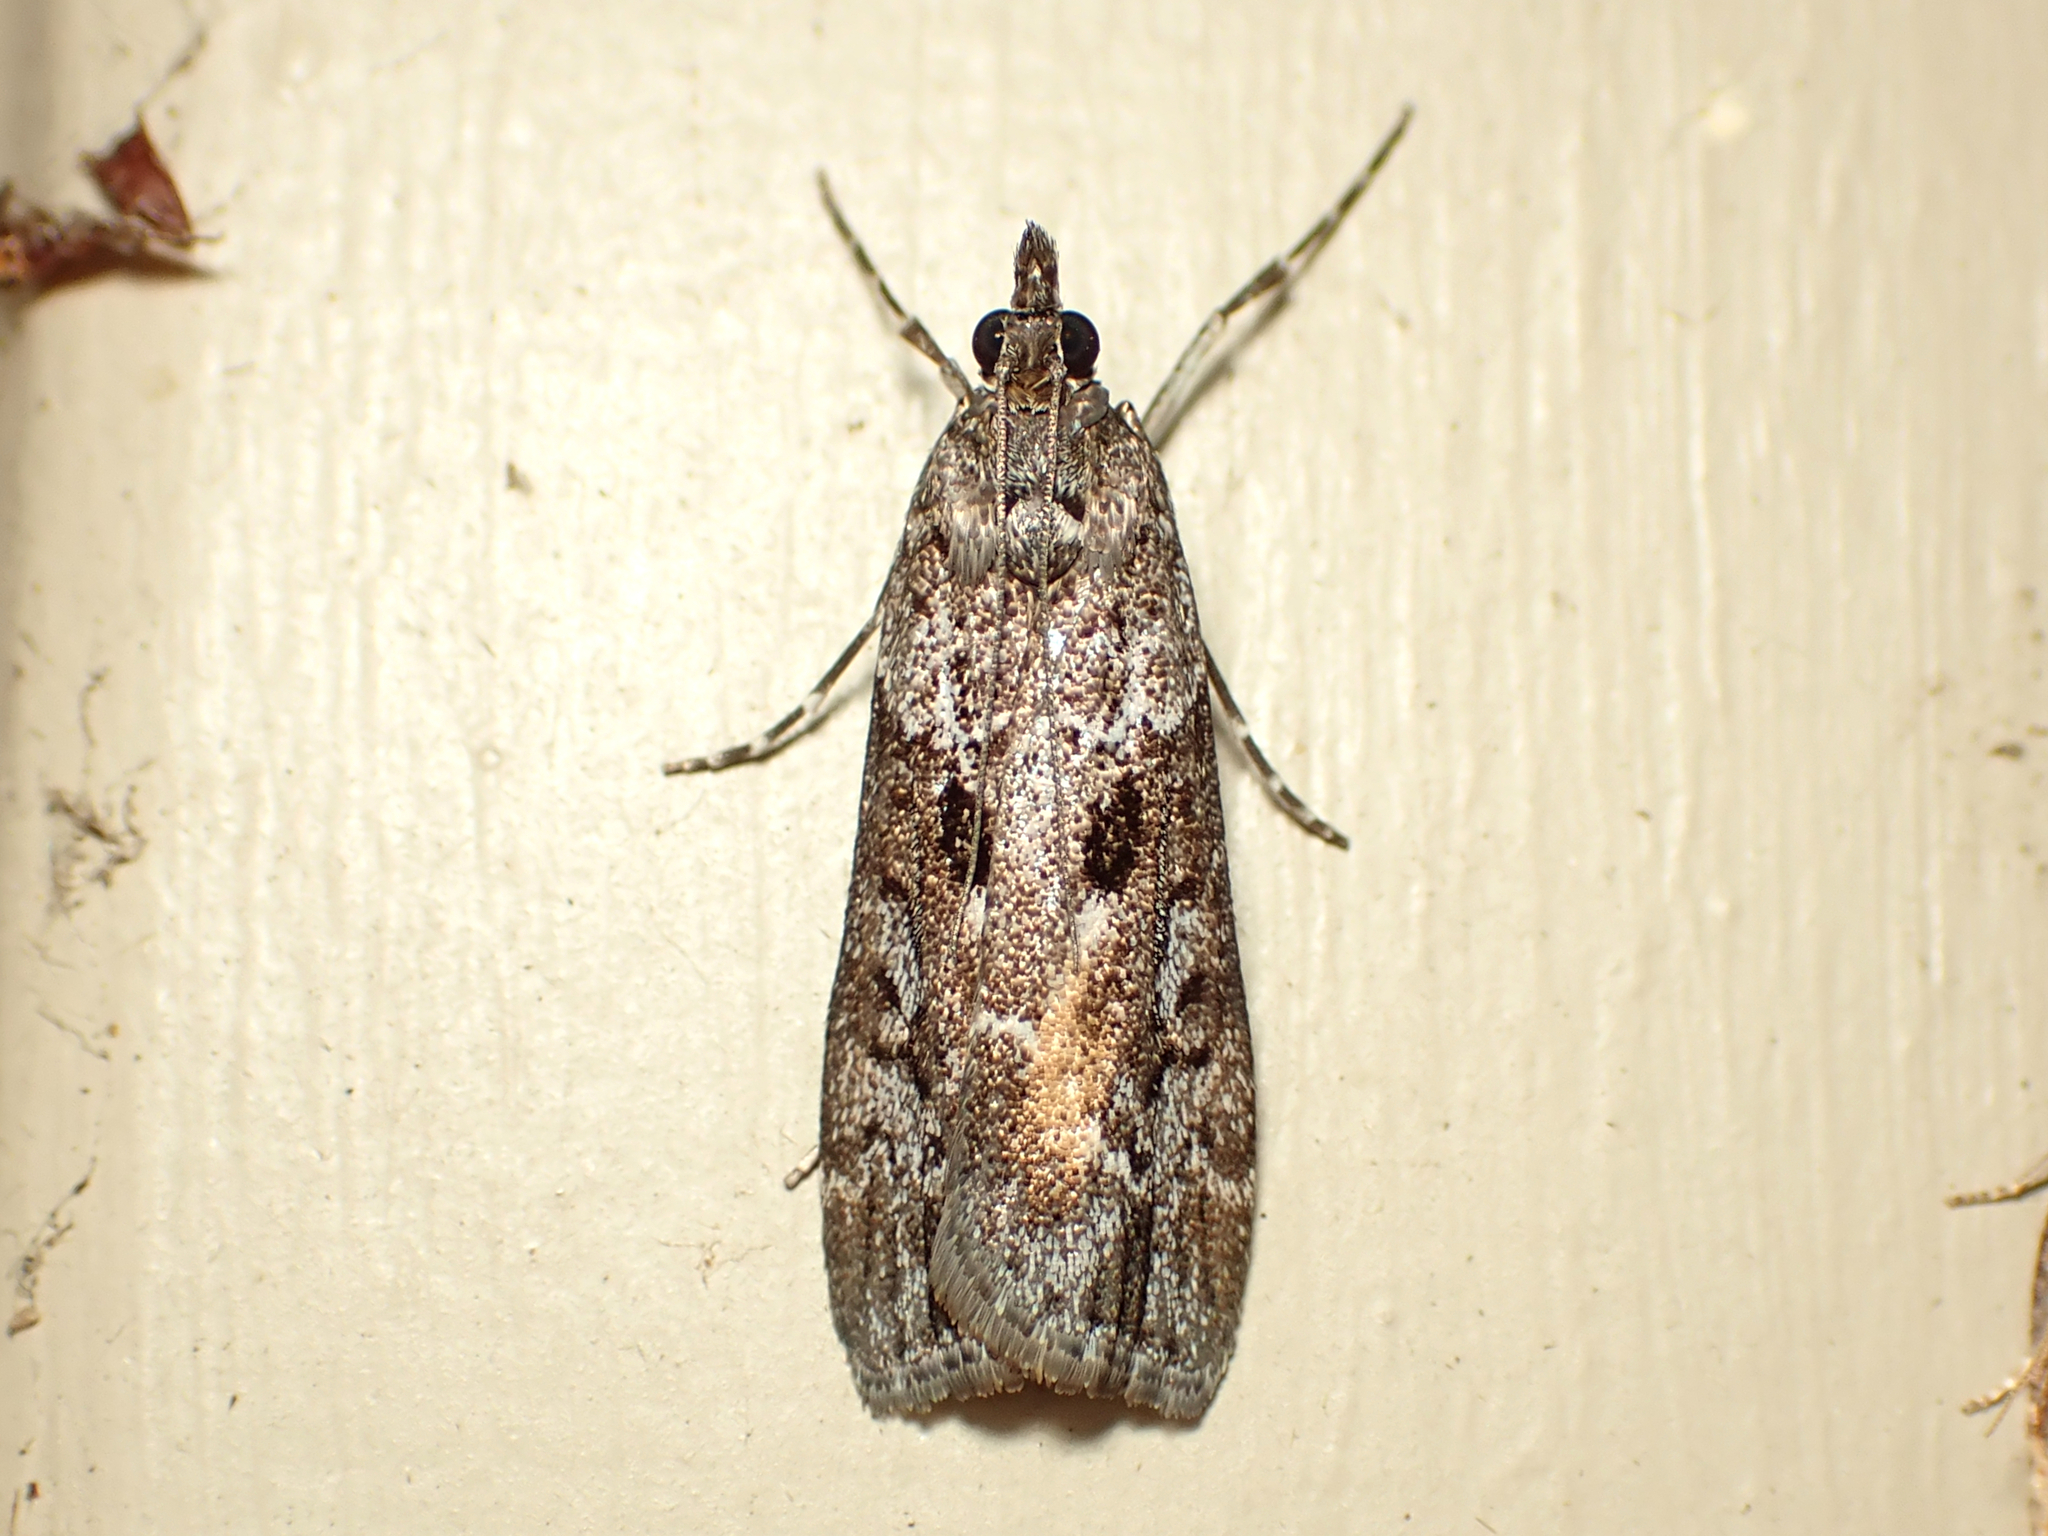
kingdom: Animalia
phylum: Arthropoda
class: Insecta
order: Lepidoptera
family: Crambidae
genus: Eudonia
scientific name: Eudonia submarginalis
